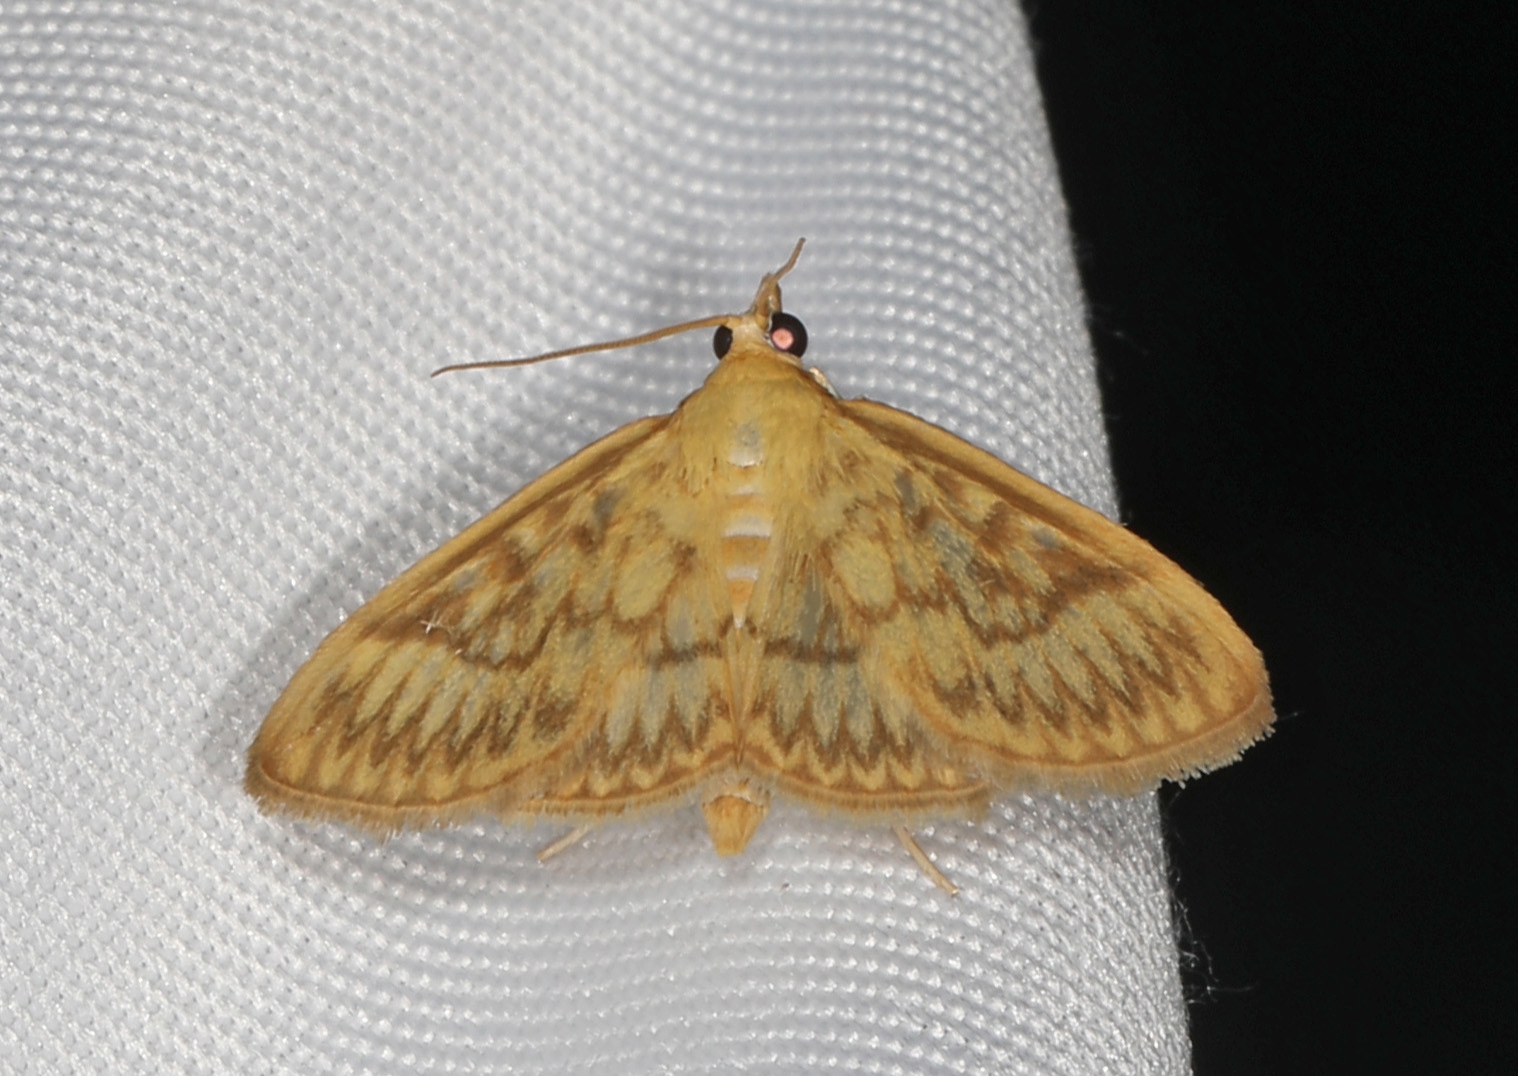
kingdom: Animalia
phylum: Arthropoda
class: Insecta
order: Lepidoptera
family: Crambidae
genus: Crocidophora
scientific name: Crocidophora serratissimalis
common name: Saw-toothed crocidophora moth
